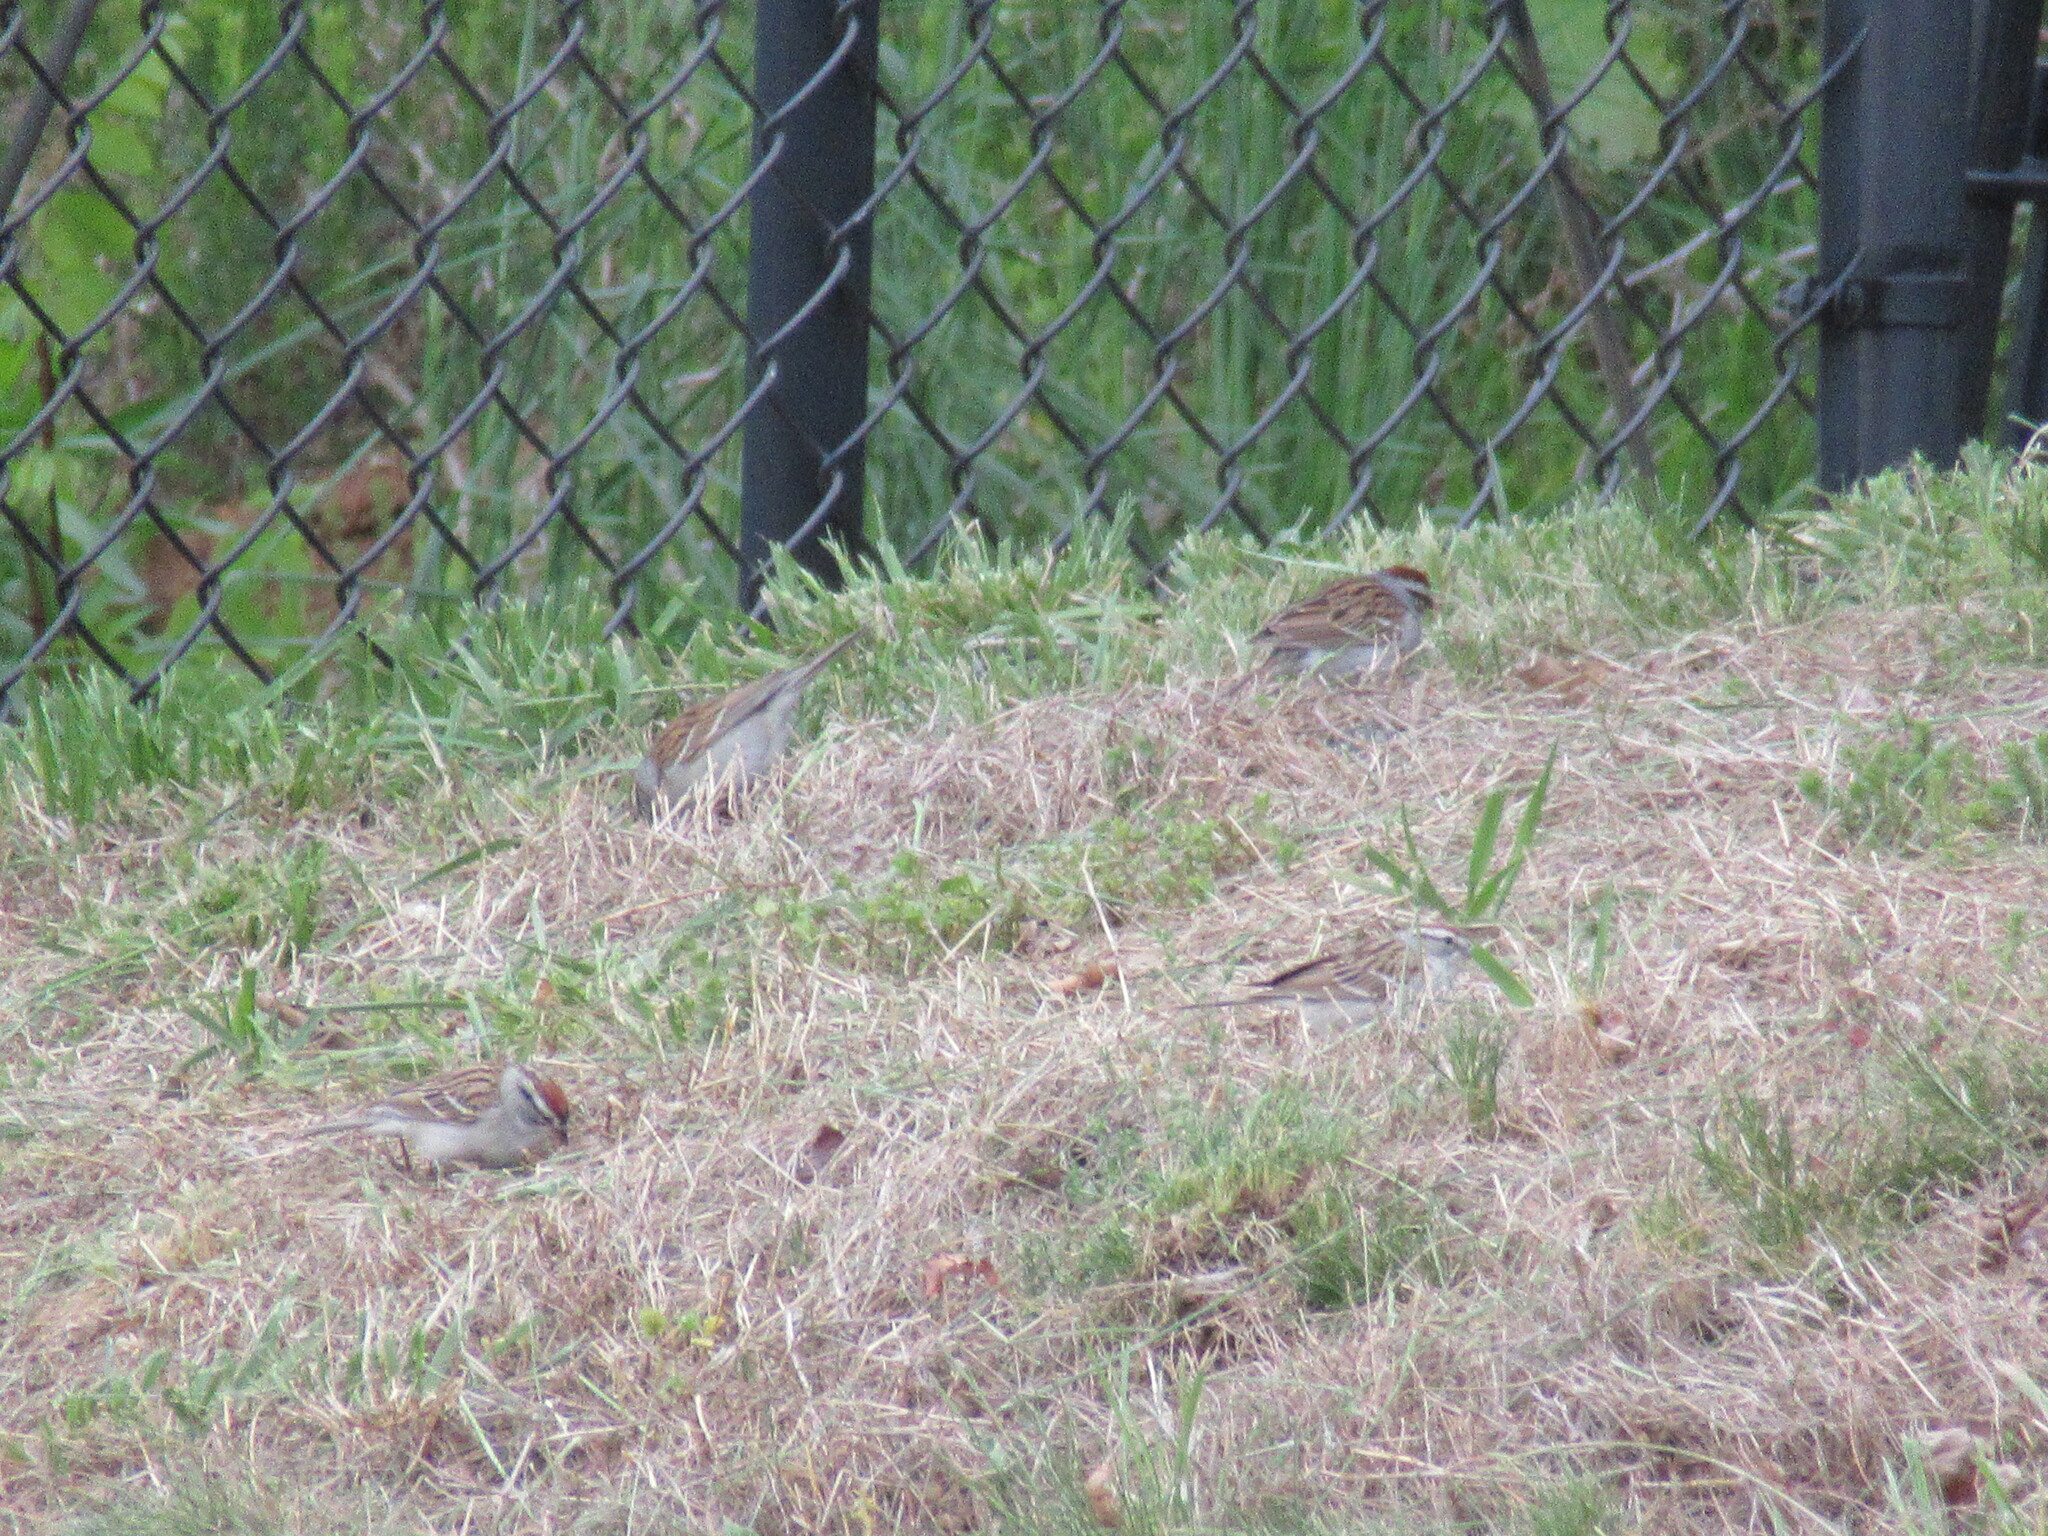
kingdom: Animalia
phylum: Chordata
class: Aves
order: Passeriformes
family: Passerellidae
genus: Spizella
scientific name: Spizella passerina
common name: Chipping sparrow
